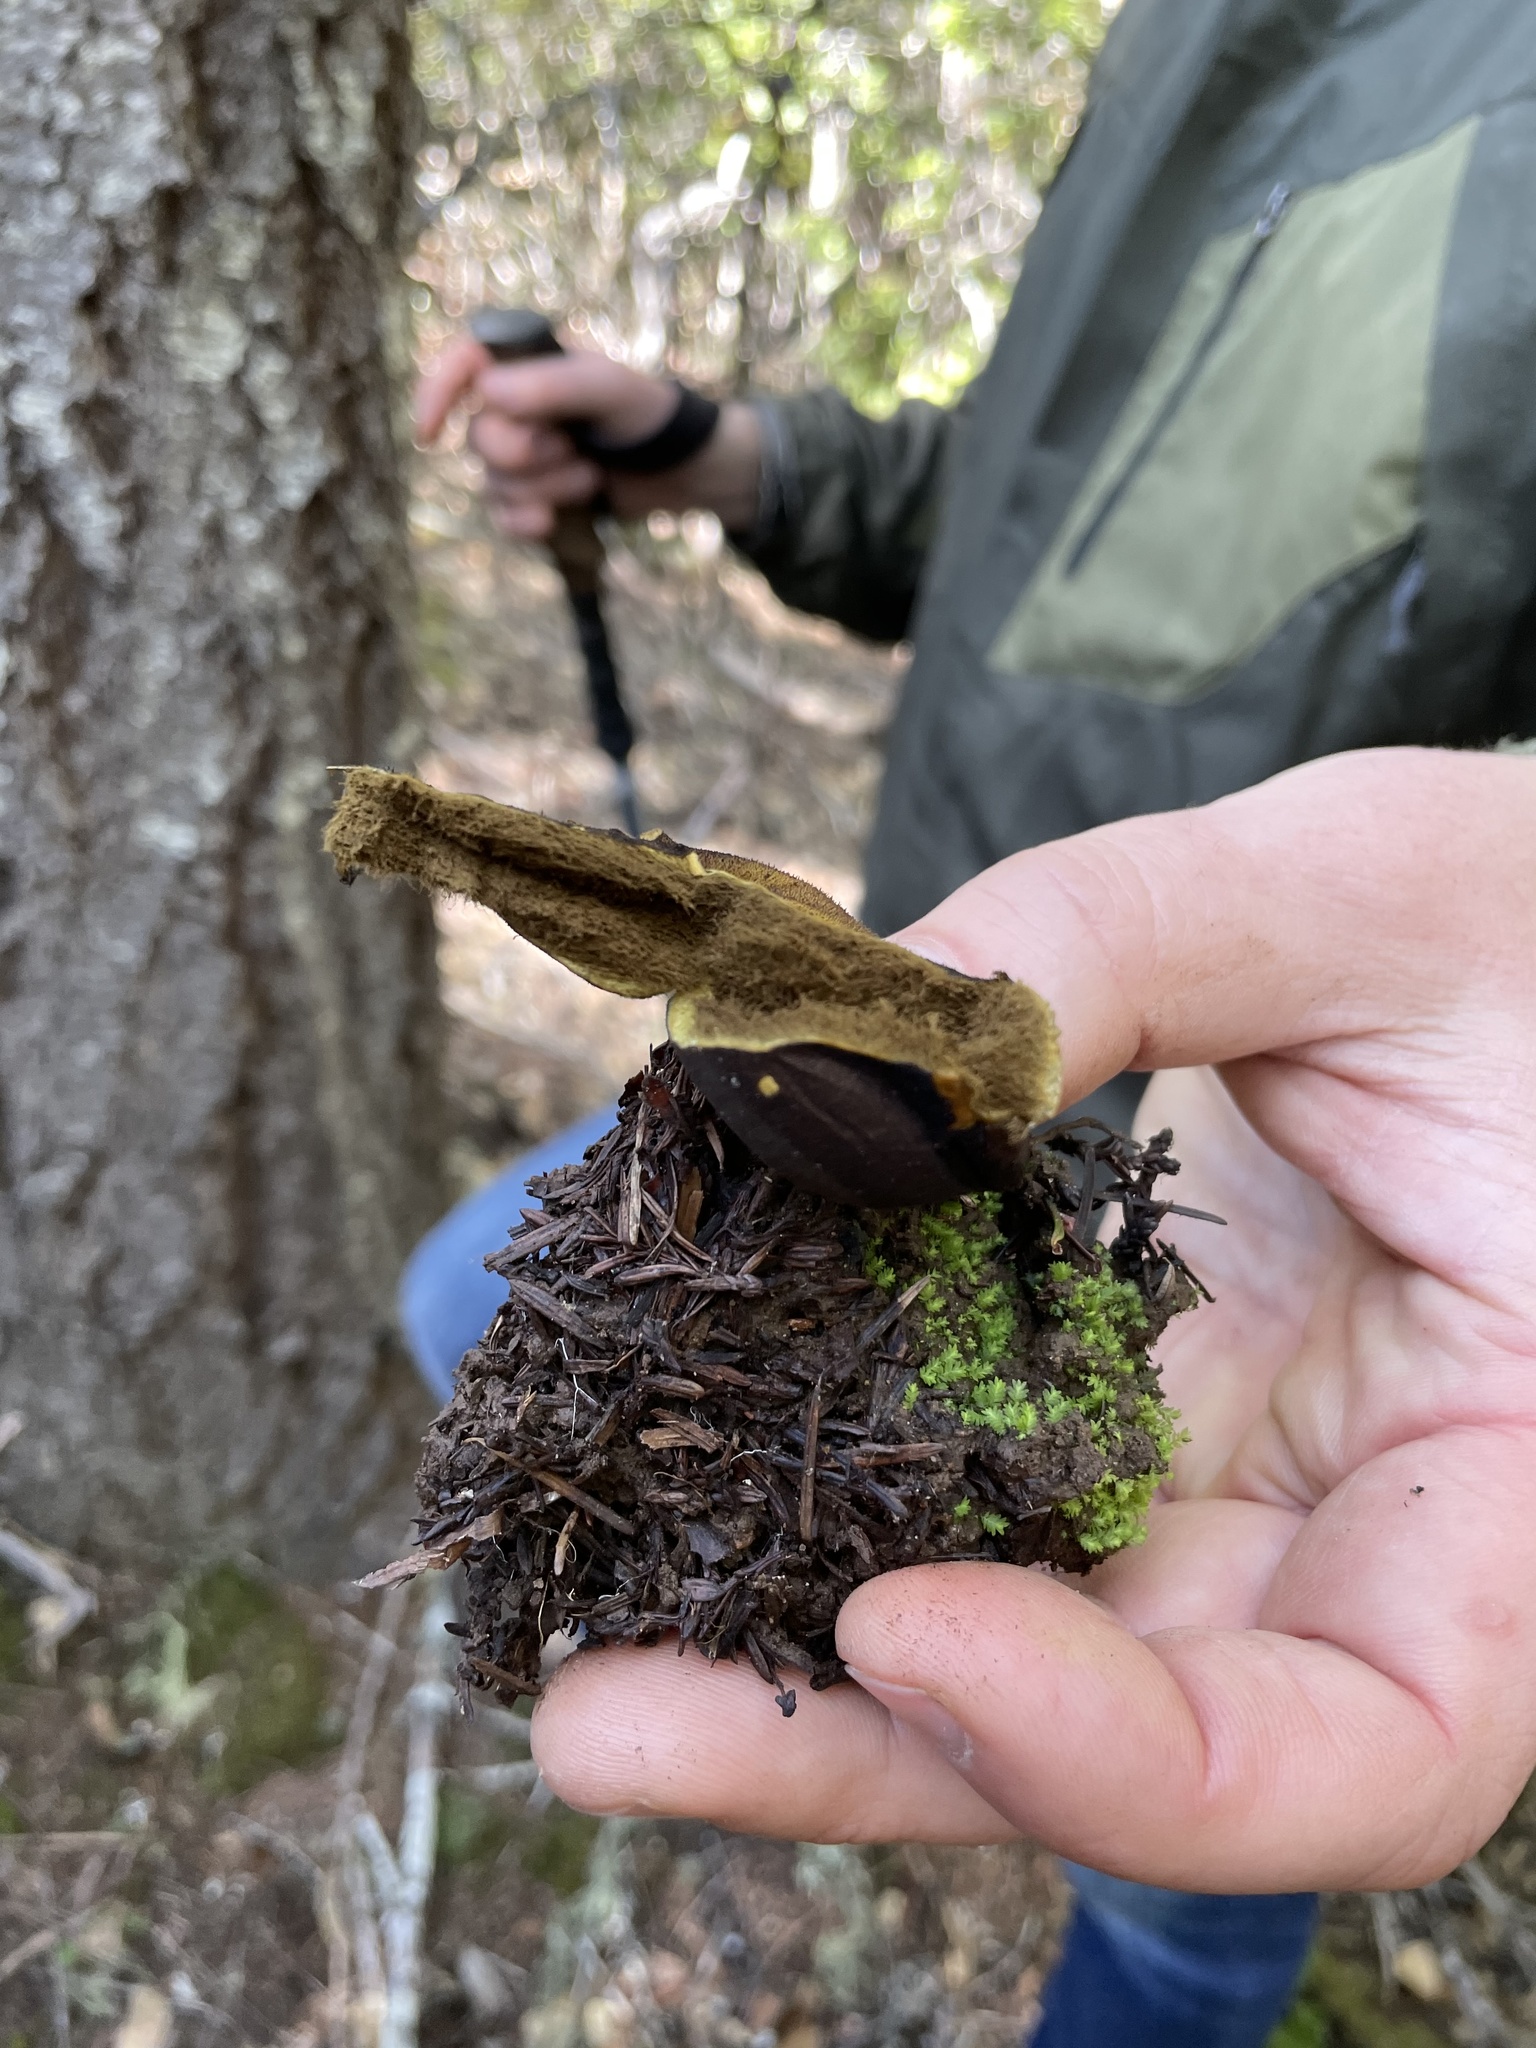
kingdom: Fungi
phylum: Basidiomycota
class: Agaricomycetes
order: Agaricales
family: Lycoperdaceae
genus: Lycoperdon
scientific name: Lycoperdon umbrinum
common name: Umber-brown puffball
